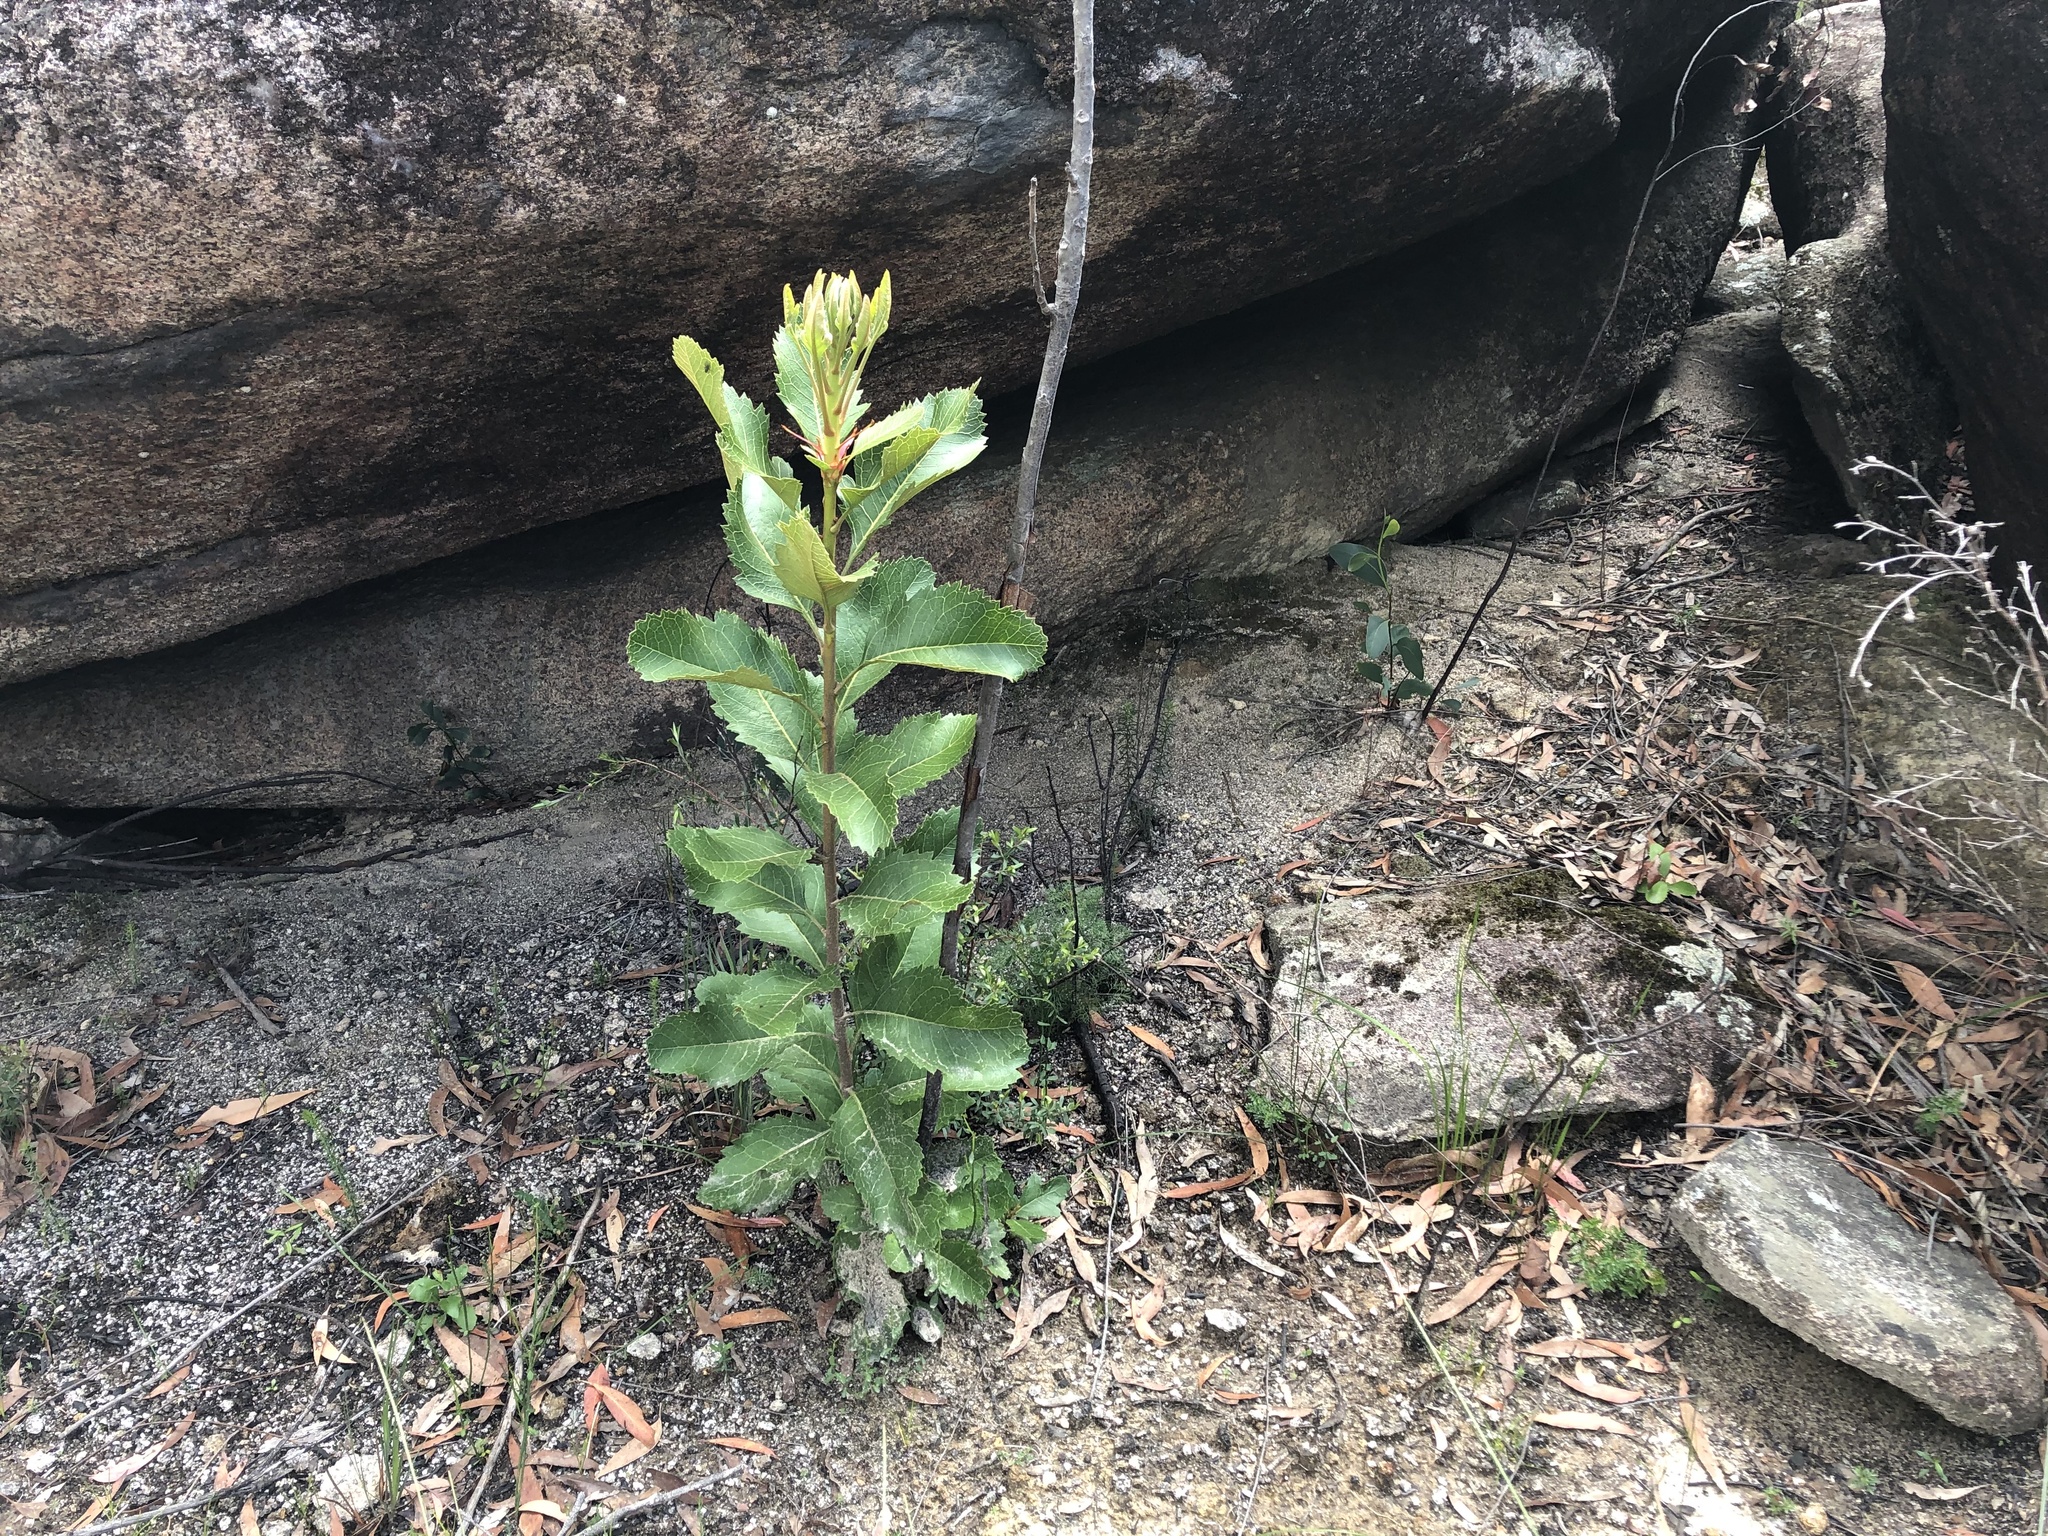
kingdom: Plantae
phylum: Tracheophyta
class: Magnoliopsida
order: Proteales
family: Proteaceae
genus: Telopea
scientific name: Telopea aspera
